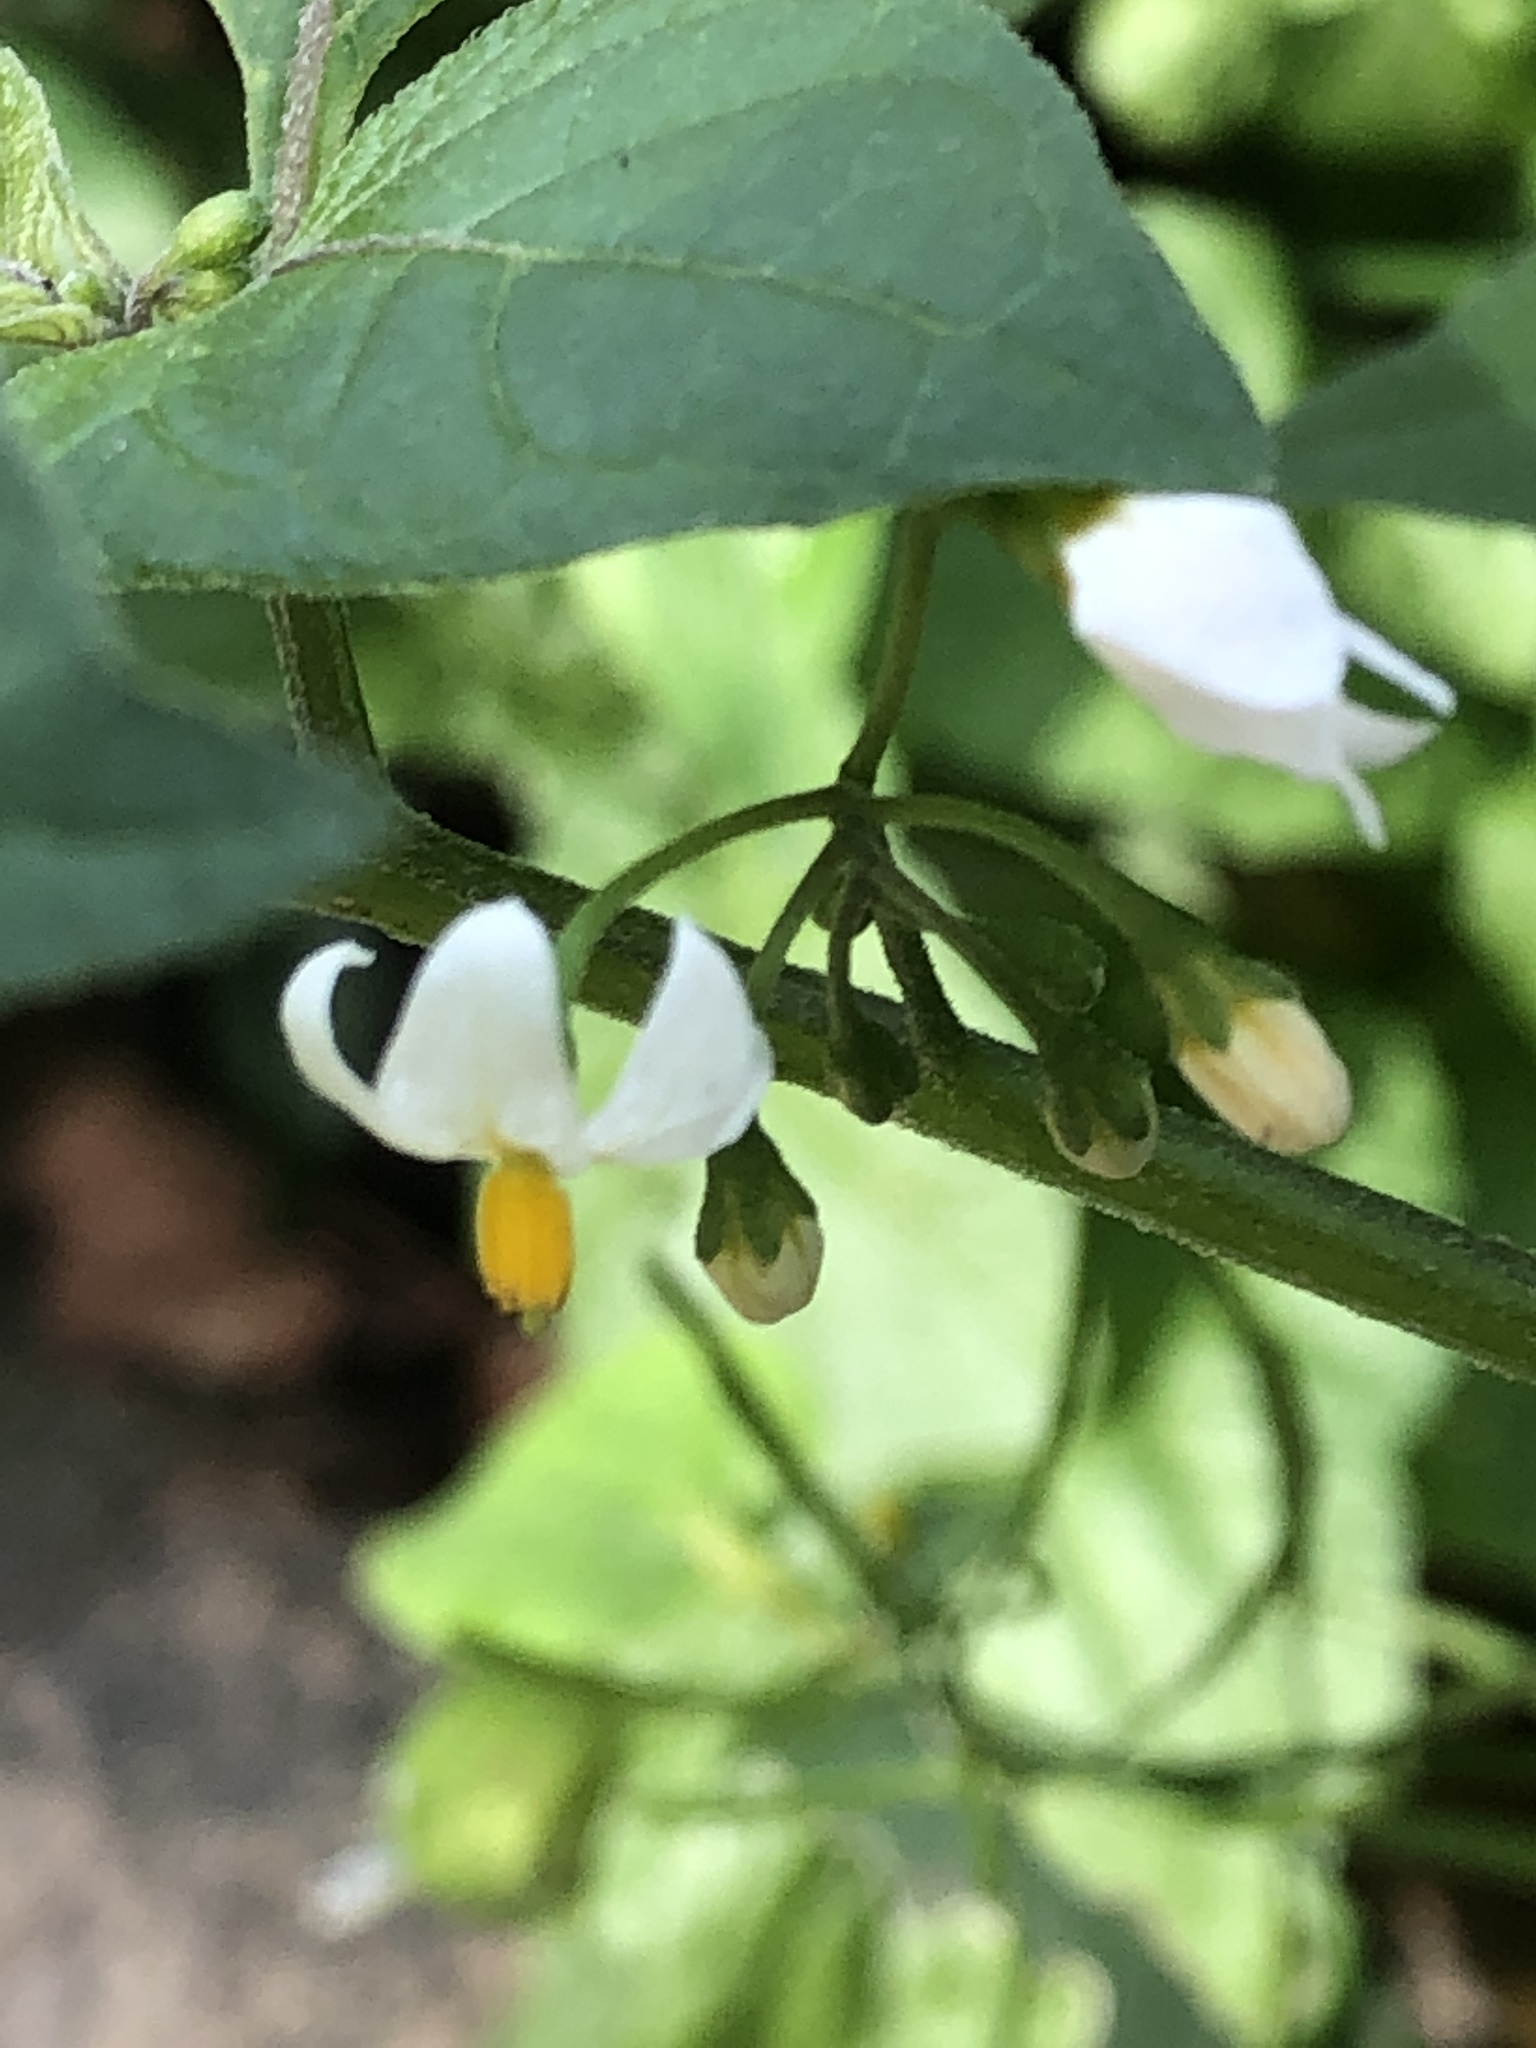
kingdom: Plantae
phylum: Tracheophyta
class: Magnoliopsida
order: Solanales
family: Solanaceae
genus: Solanum
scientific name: Solanum nigrum
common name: Black nightshade
